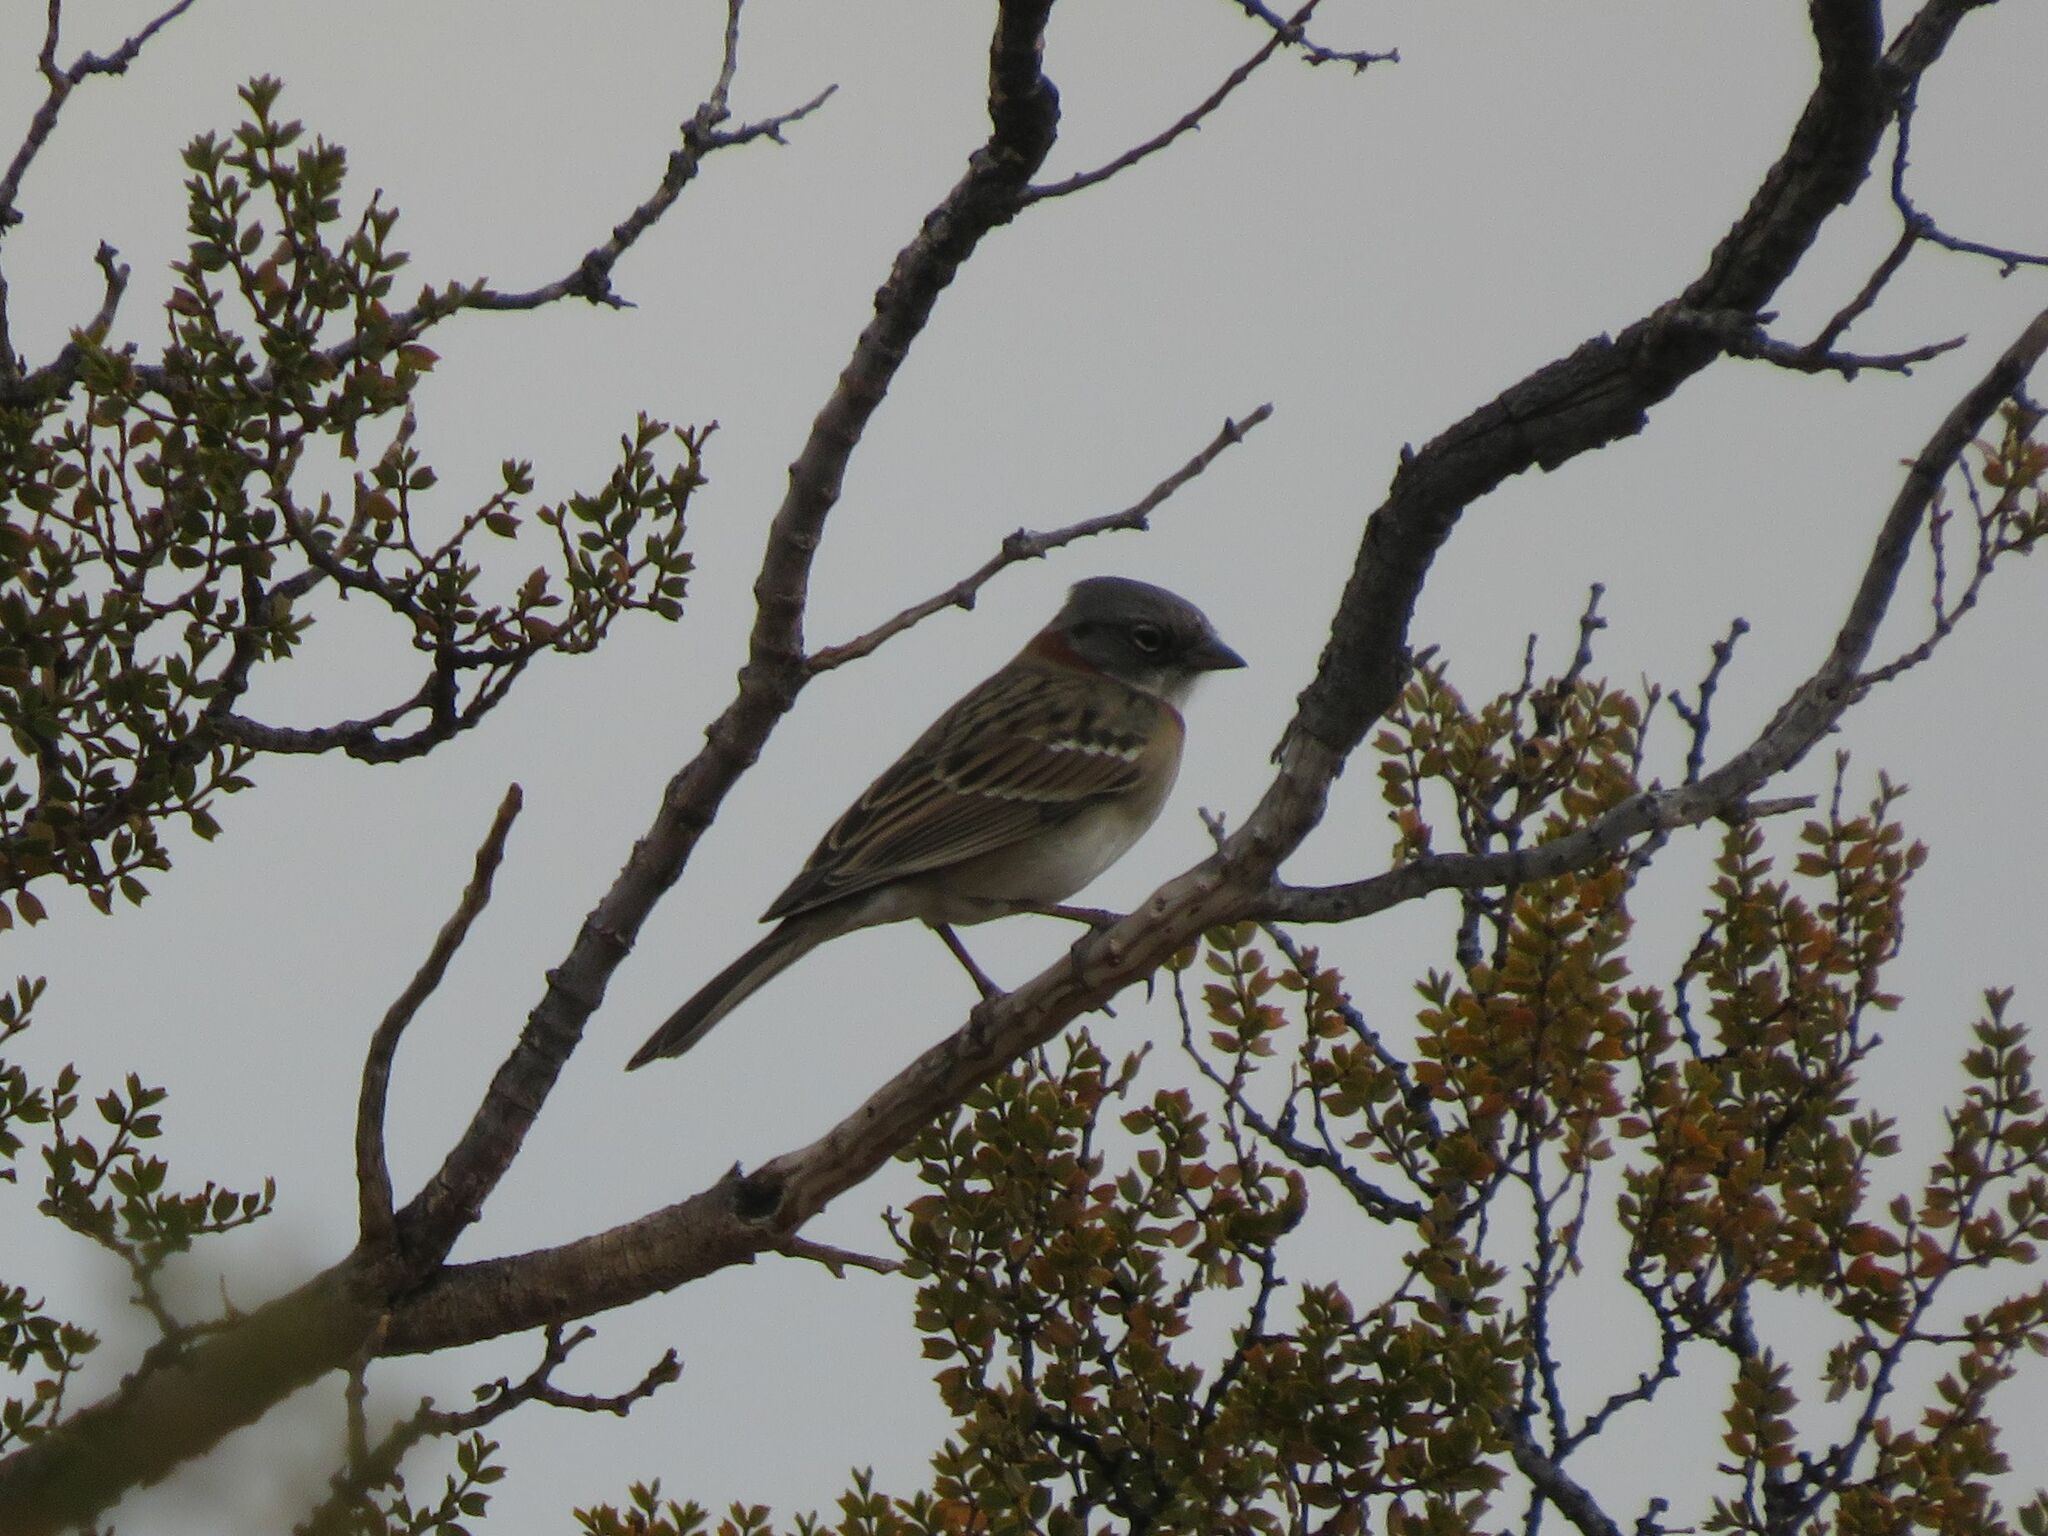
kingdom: Animalia
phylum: Chordata
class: Aves
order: Passeriformes
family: Passerellidae
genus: Zonotrichia
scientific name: Zonotrichia capensis
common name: Rufous-collared sparrow
